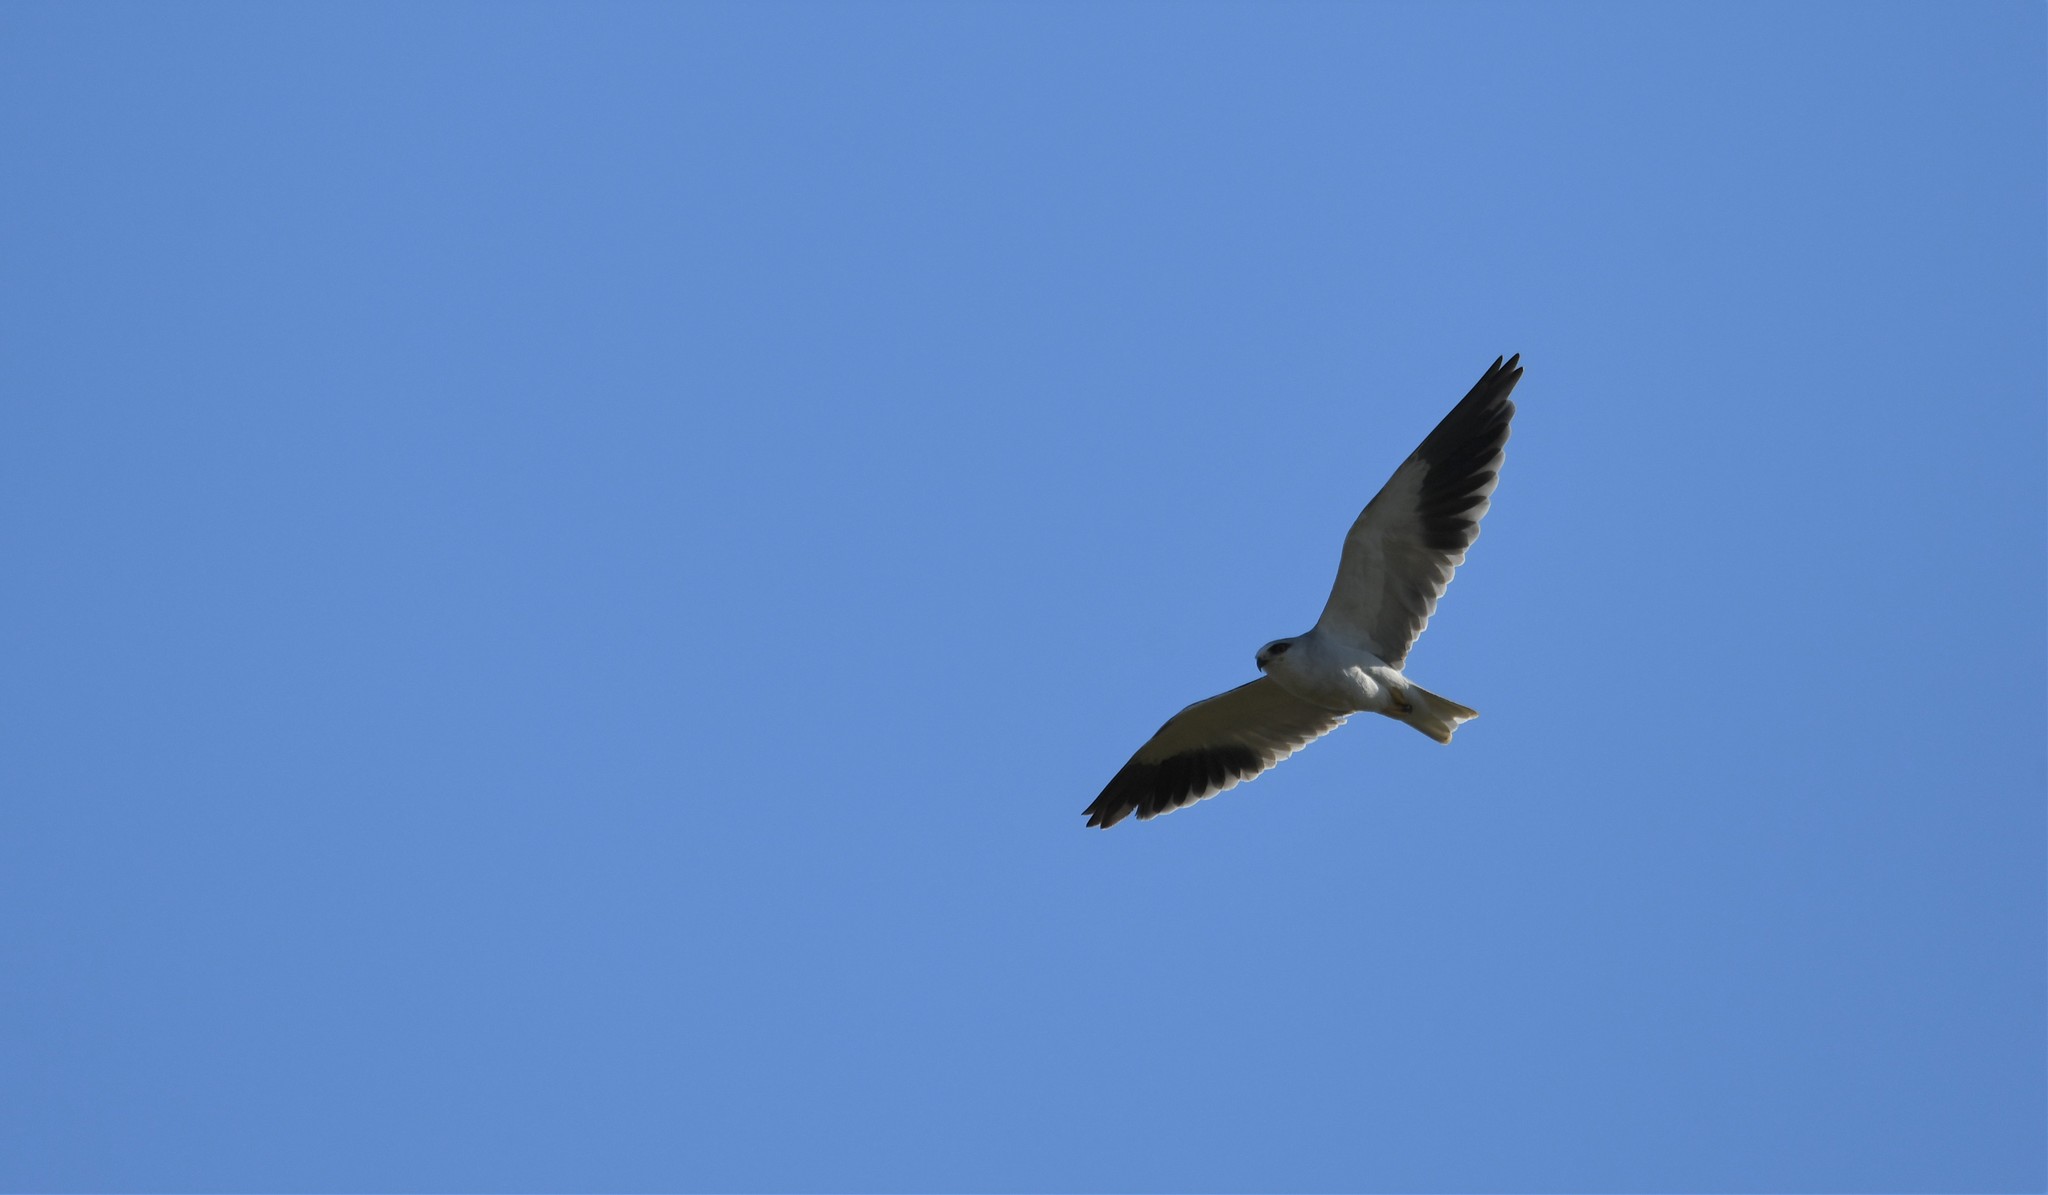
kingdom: Animalia
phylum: Chordata
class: Aves
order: Accipitriformes
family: Accipitridae
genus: Elanus
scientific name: Elanus caeruleus
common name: Black-winged kite
